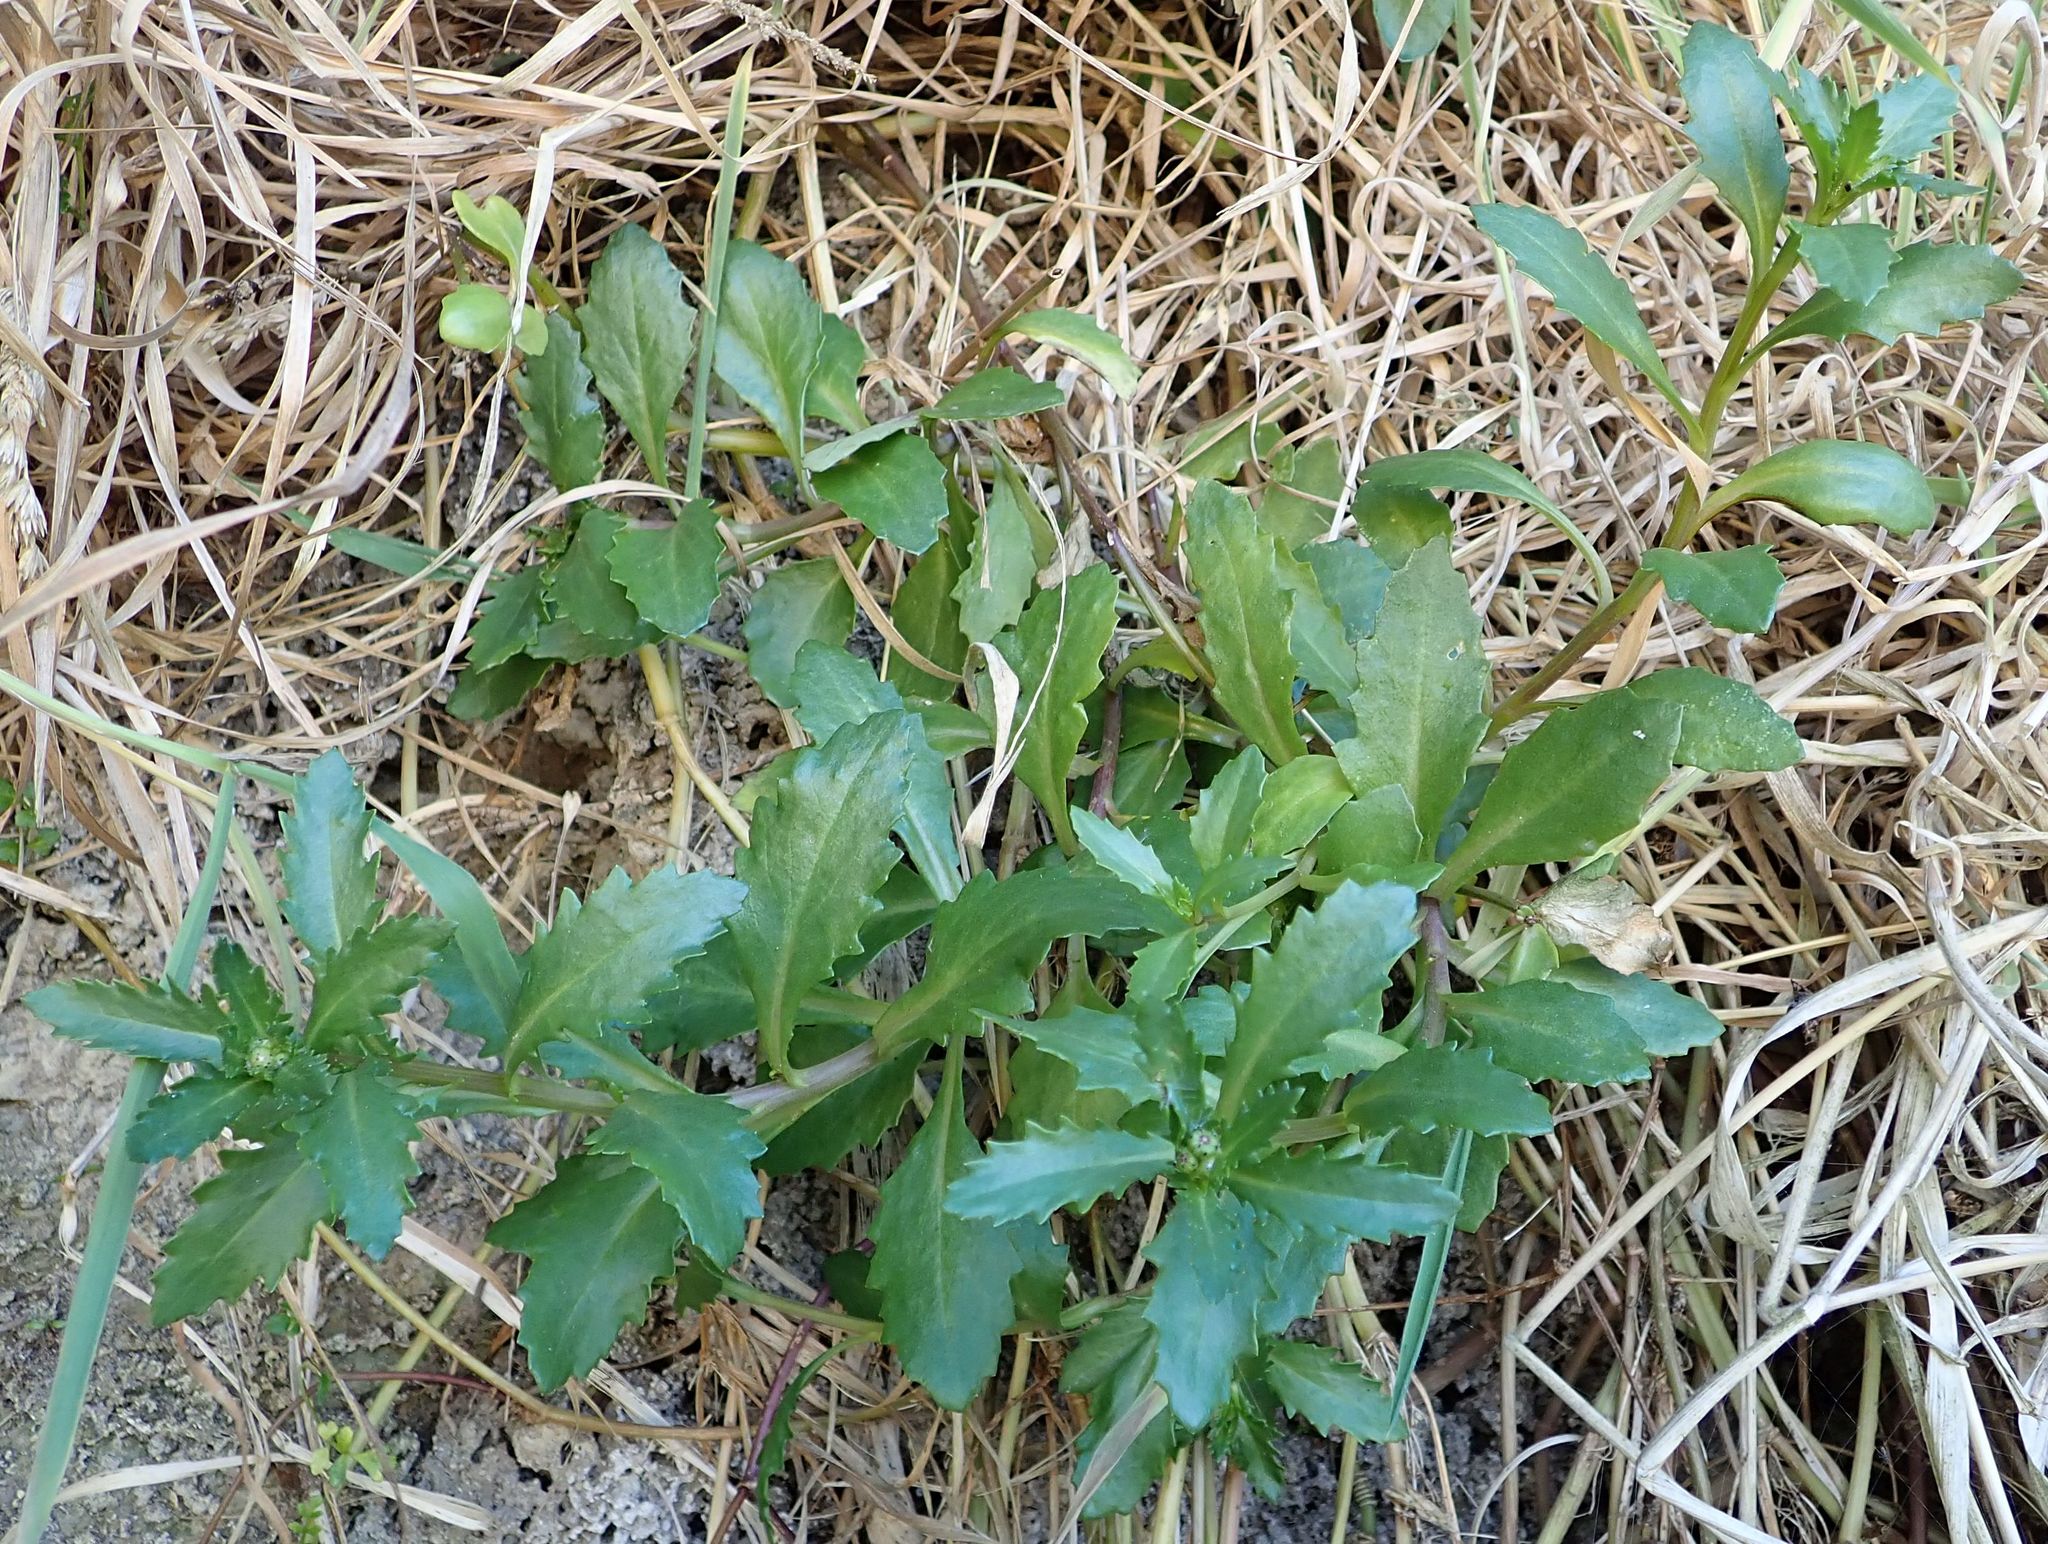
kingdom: Plantae
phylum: Tracheophyta
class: Magnoliopsida
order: Asterales
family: Asteraceae
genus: Senecio
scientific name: Senecio matatini
